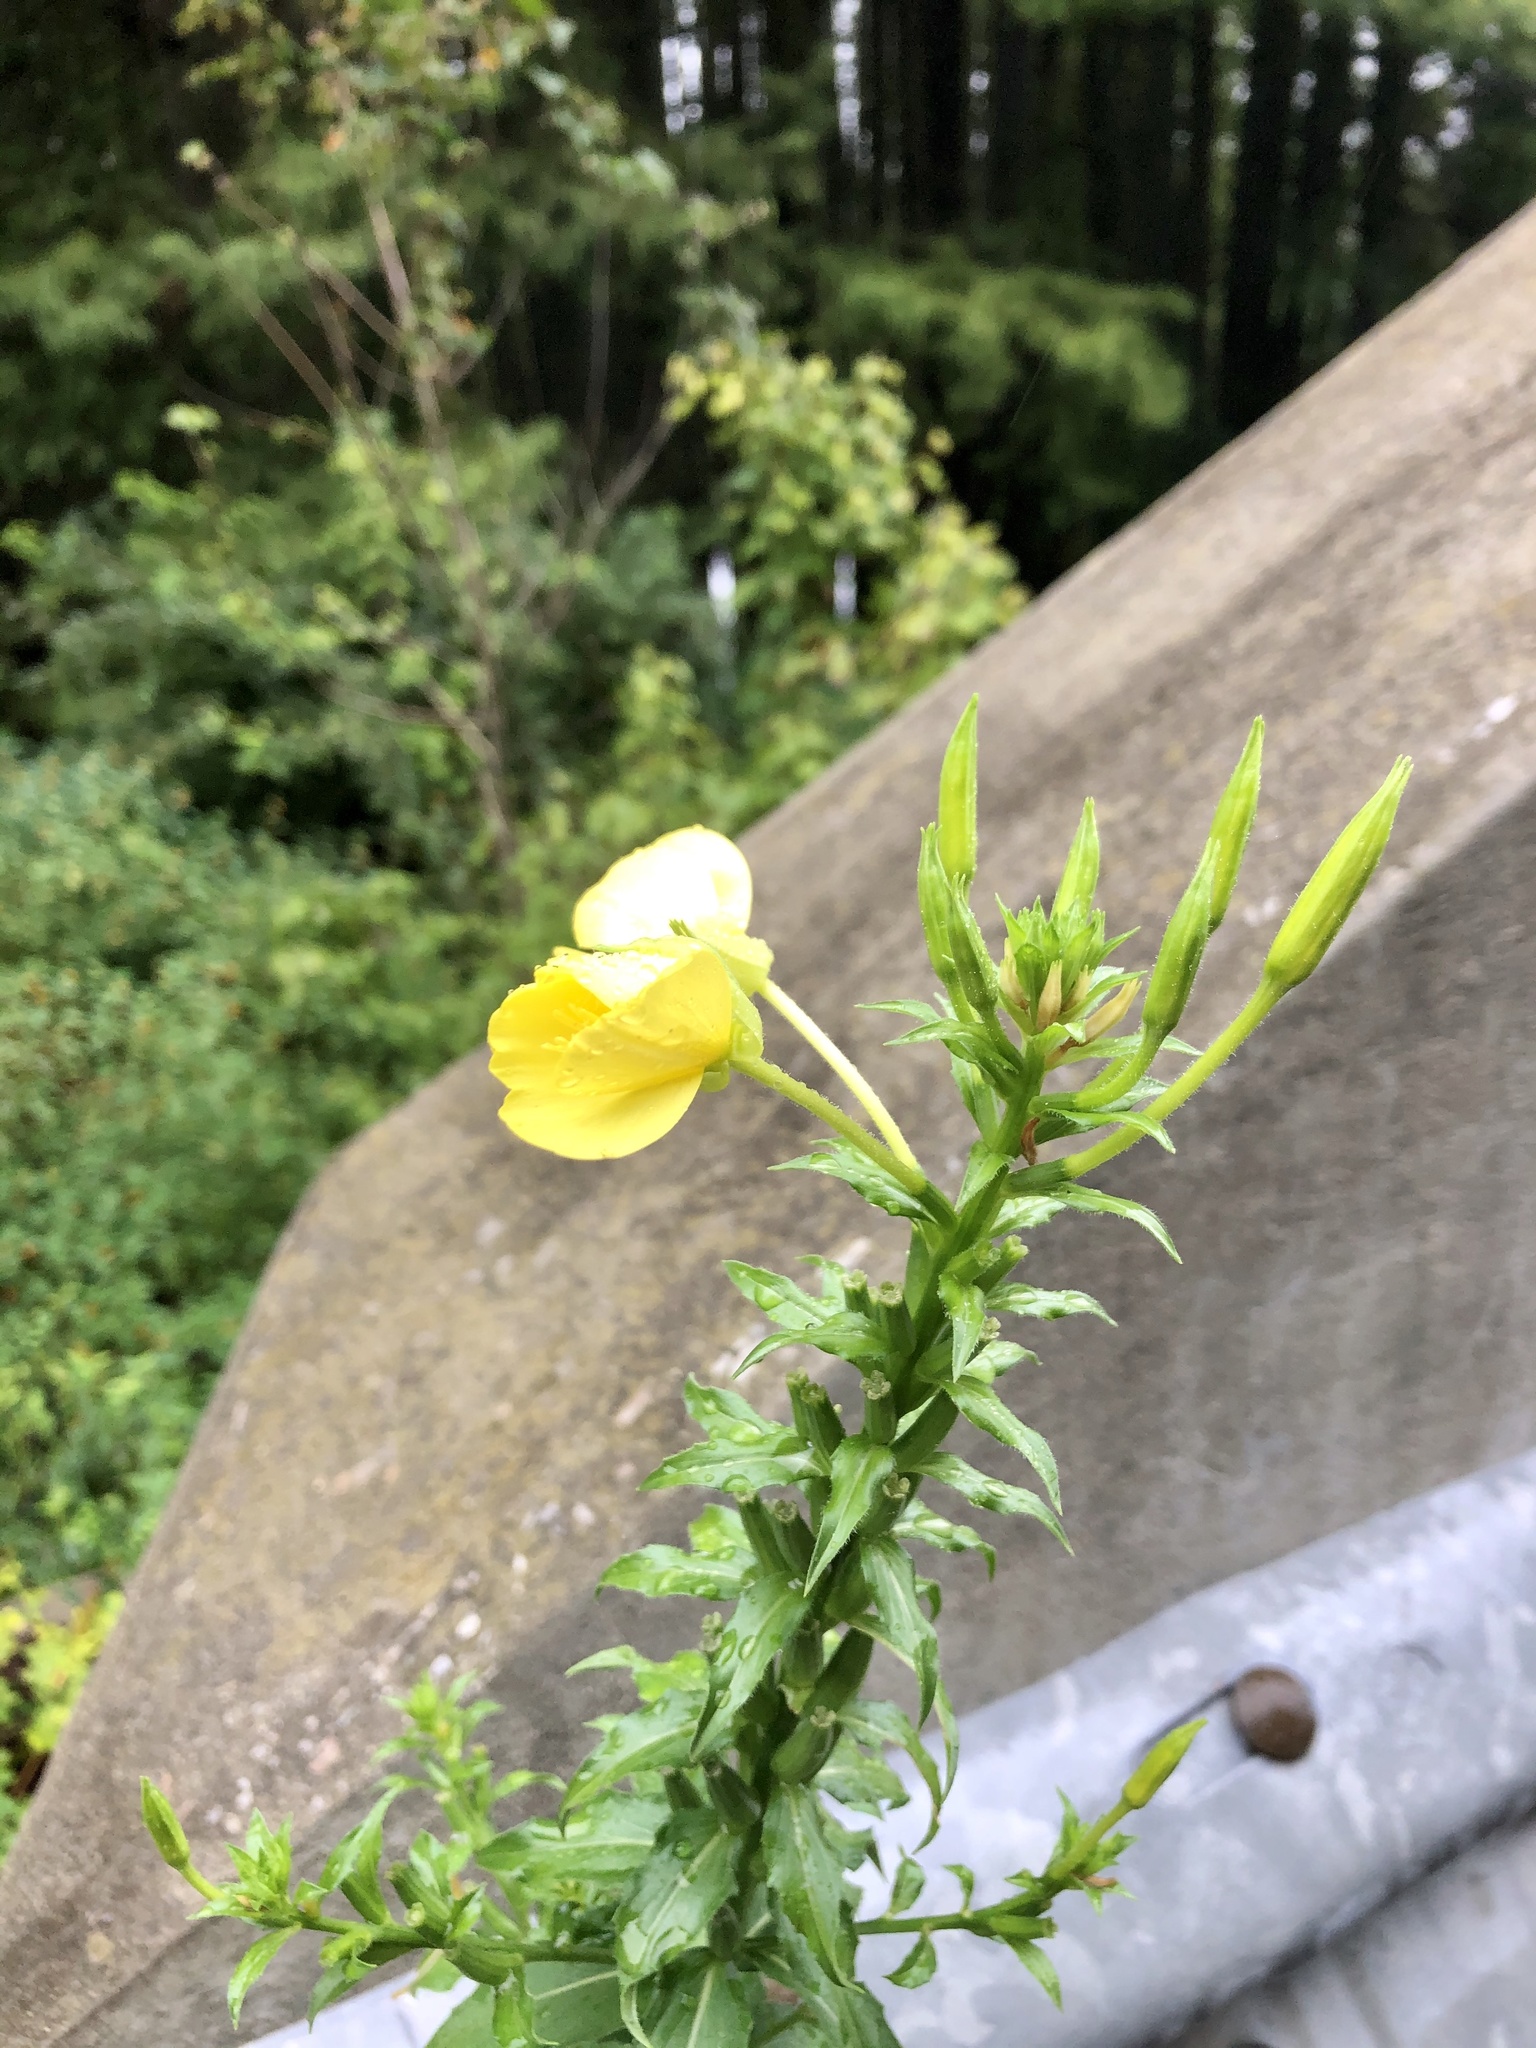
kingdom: Plantae
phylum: Tracheophyta
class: Magnoliopsida
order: Myrtales
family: Onagraceae
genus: Oenothera
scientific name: Oenothera biennis
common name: Common evening-primrose
